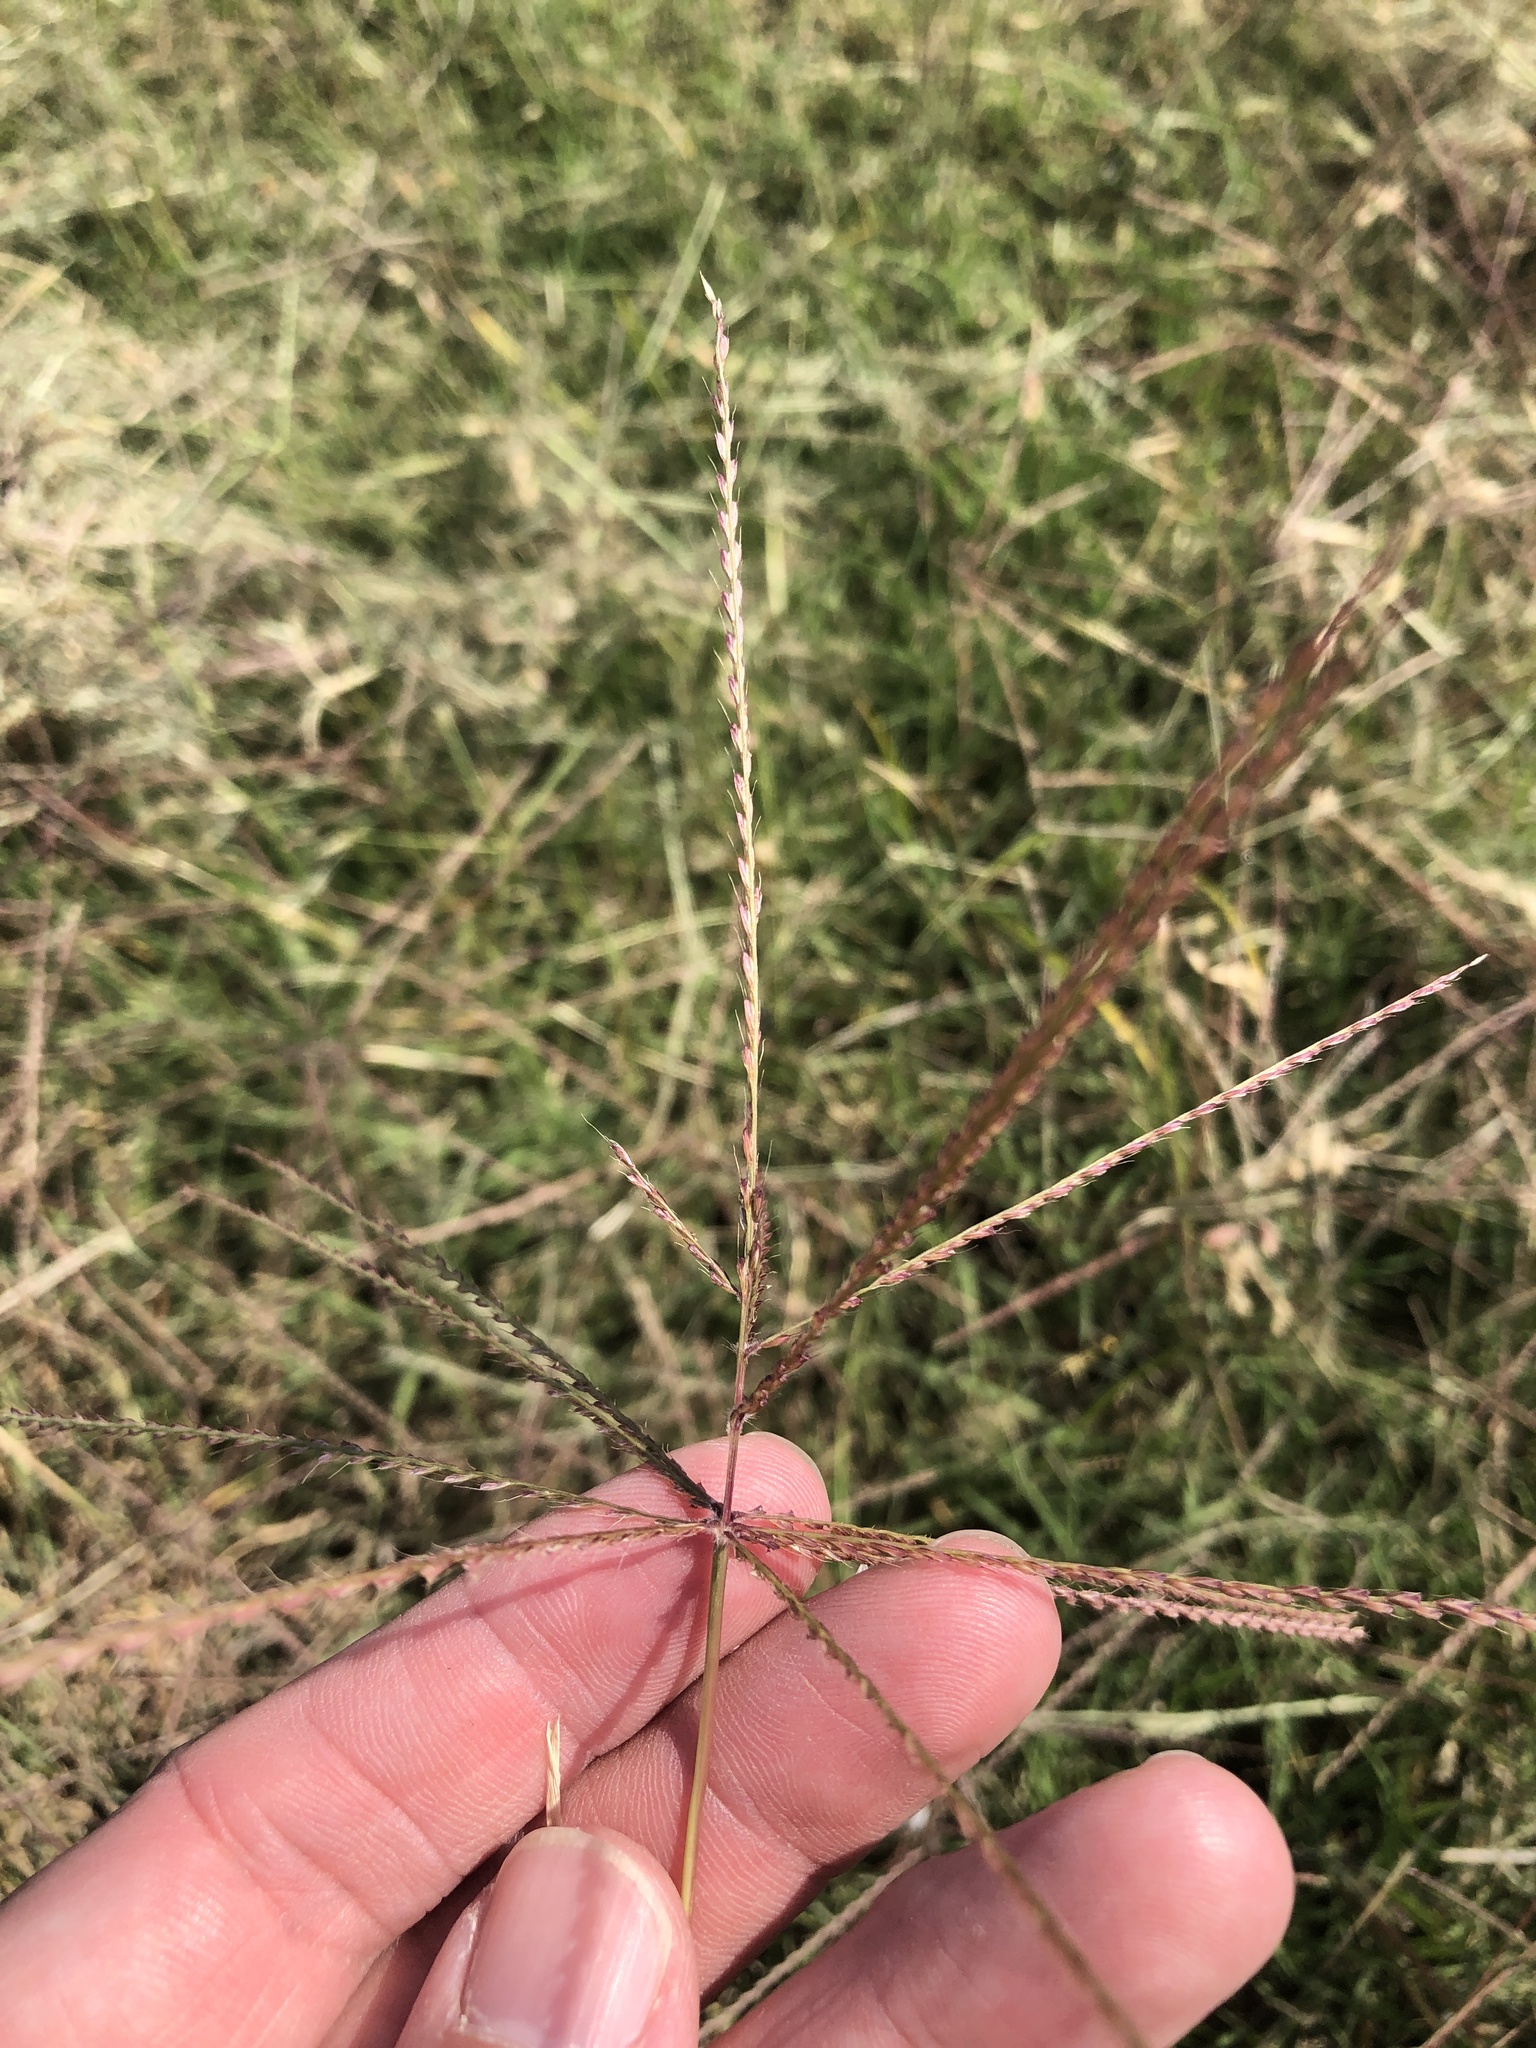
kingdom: Plantae
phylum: Tracheophyta
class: Liliopsida
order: Poales
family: Poaceae
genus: Chloris
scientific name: Chloris verticillata
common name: Tumble windmill grass
